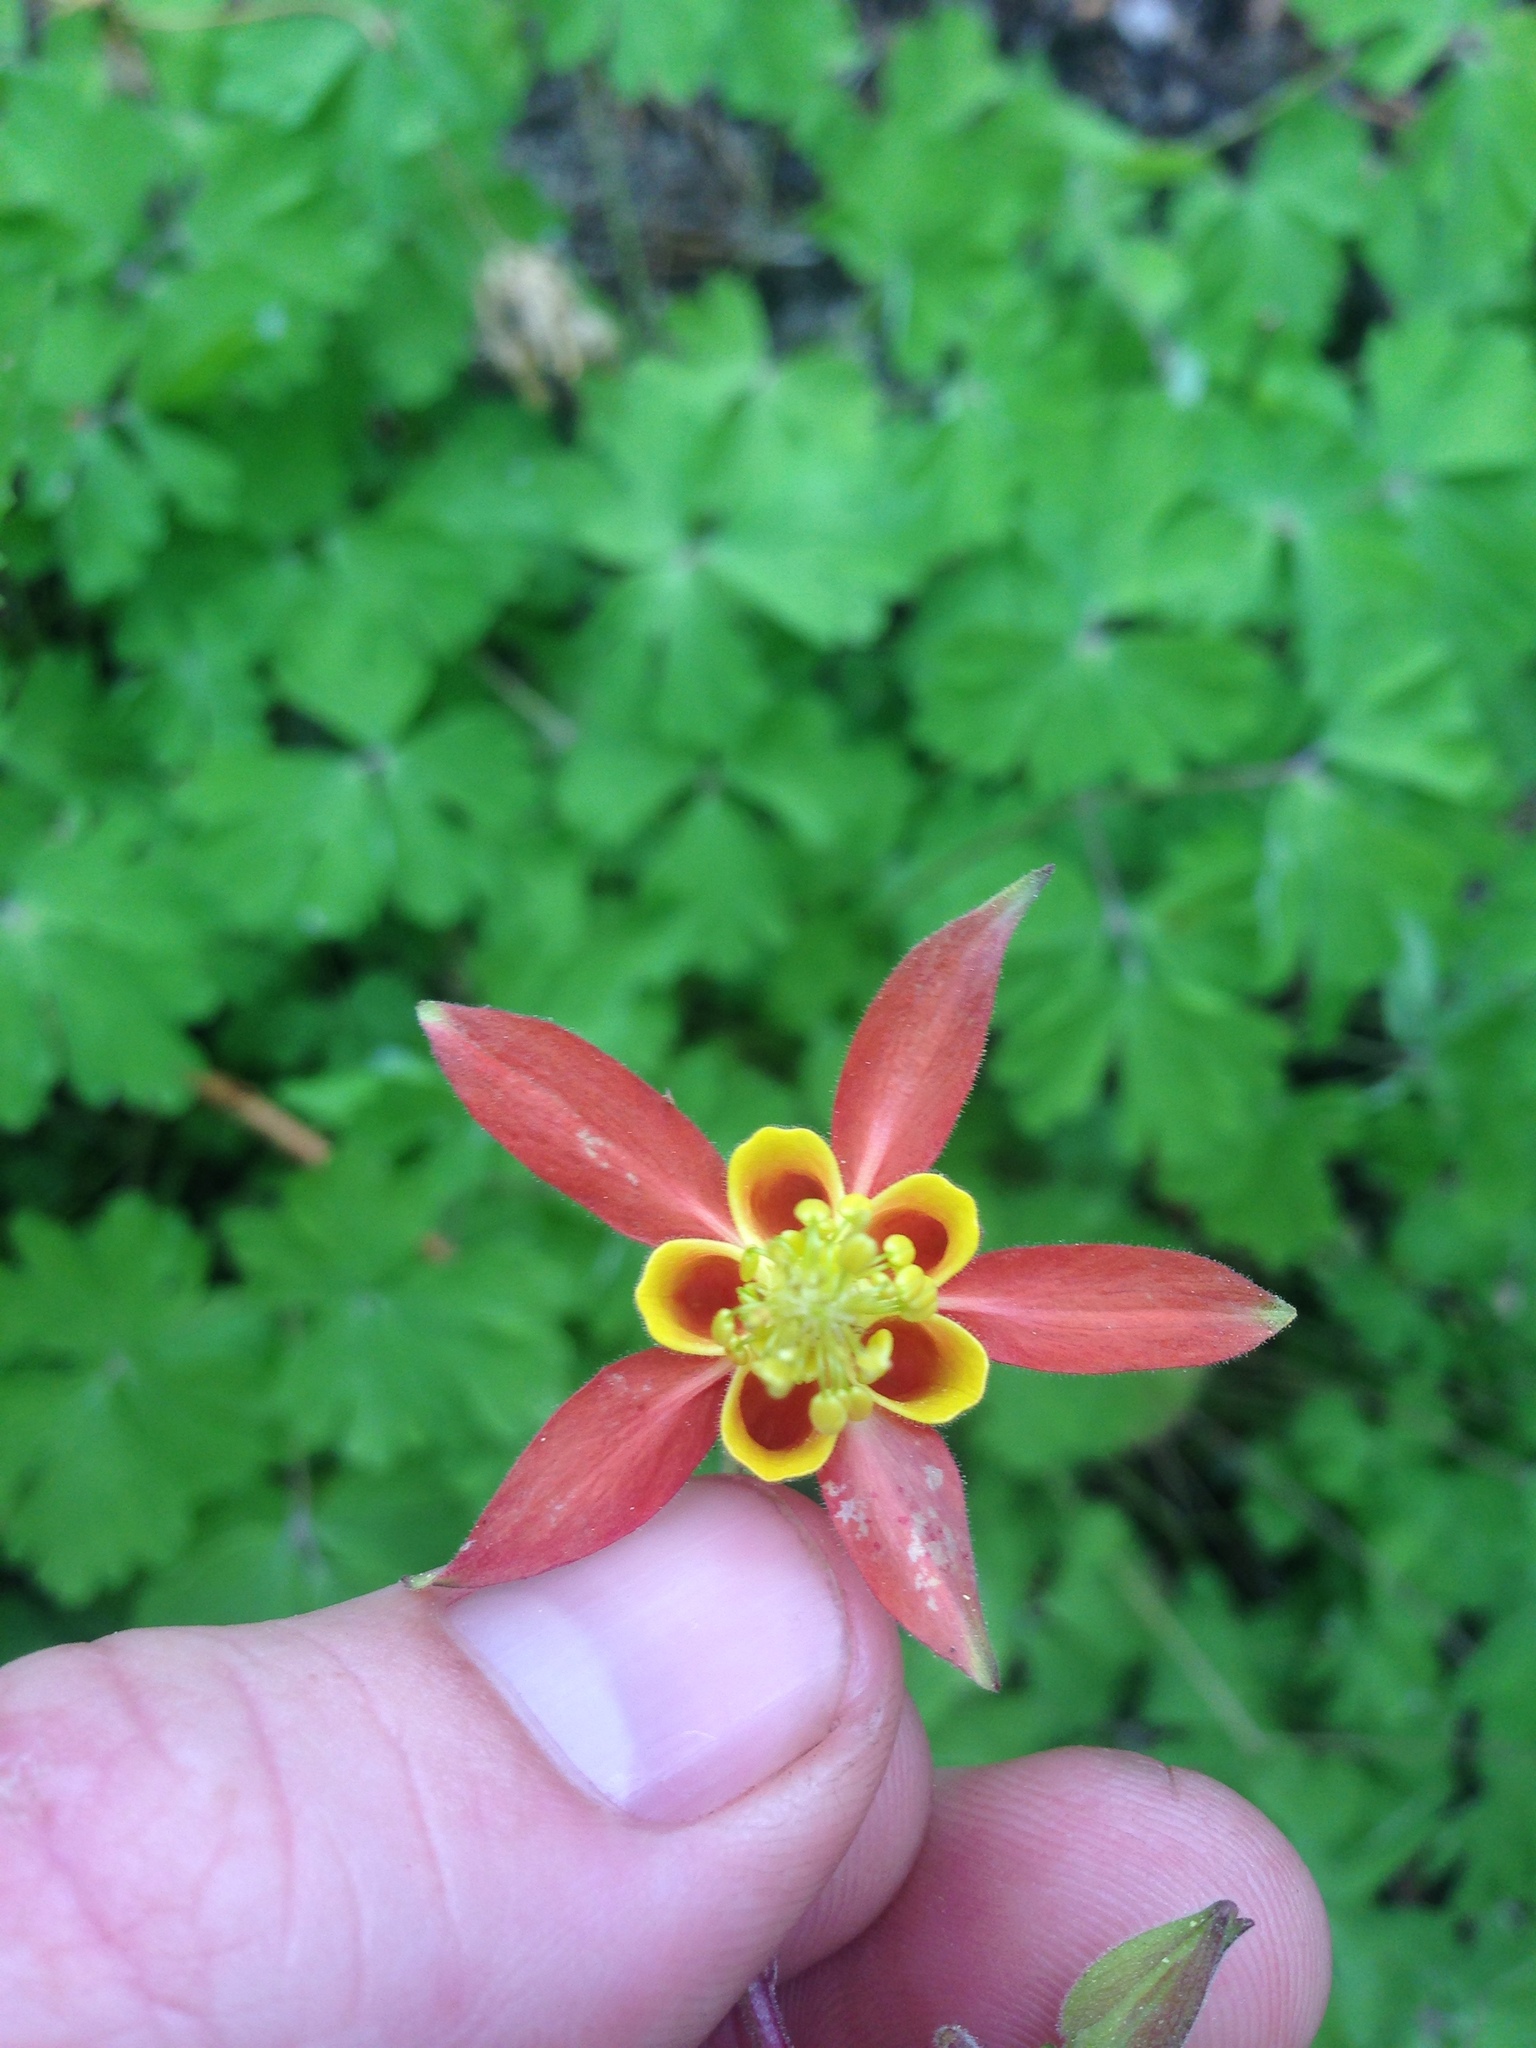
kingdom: Plantae
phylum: Tracheophyta
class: Magnoliopsida
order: Ranunculales
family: Ranunculaceae
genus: Aquilegia
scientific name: Aquilegia formosa
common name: Sitka columbine
